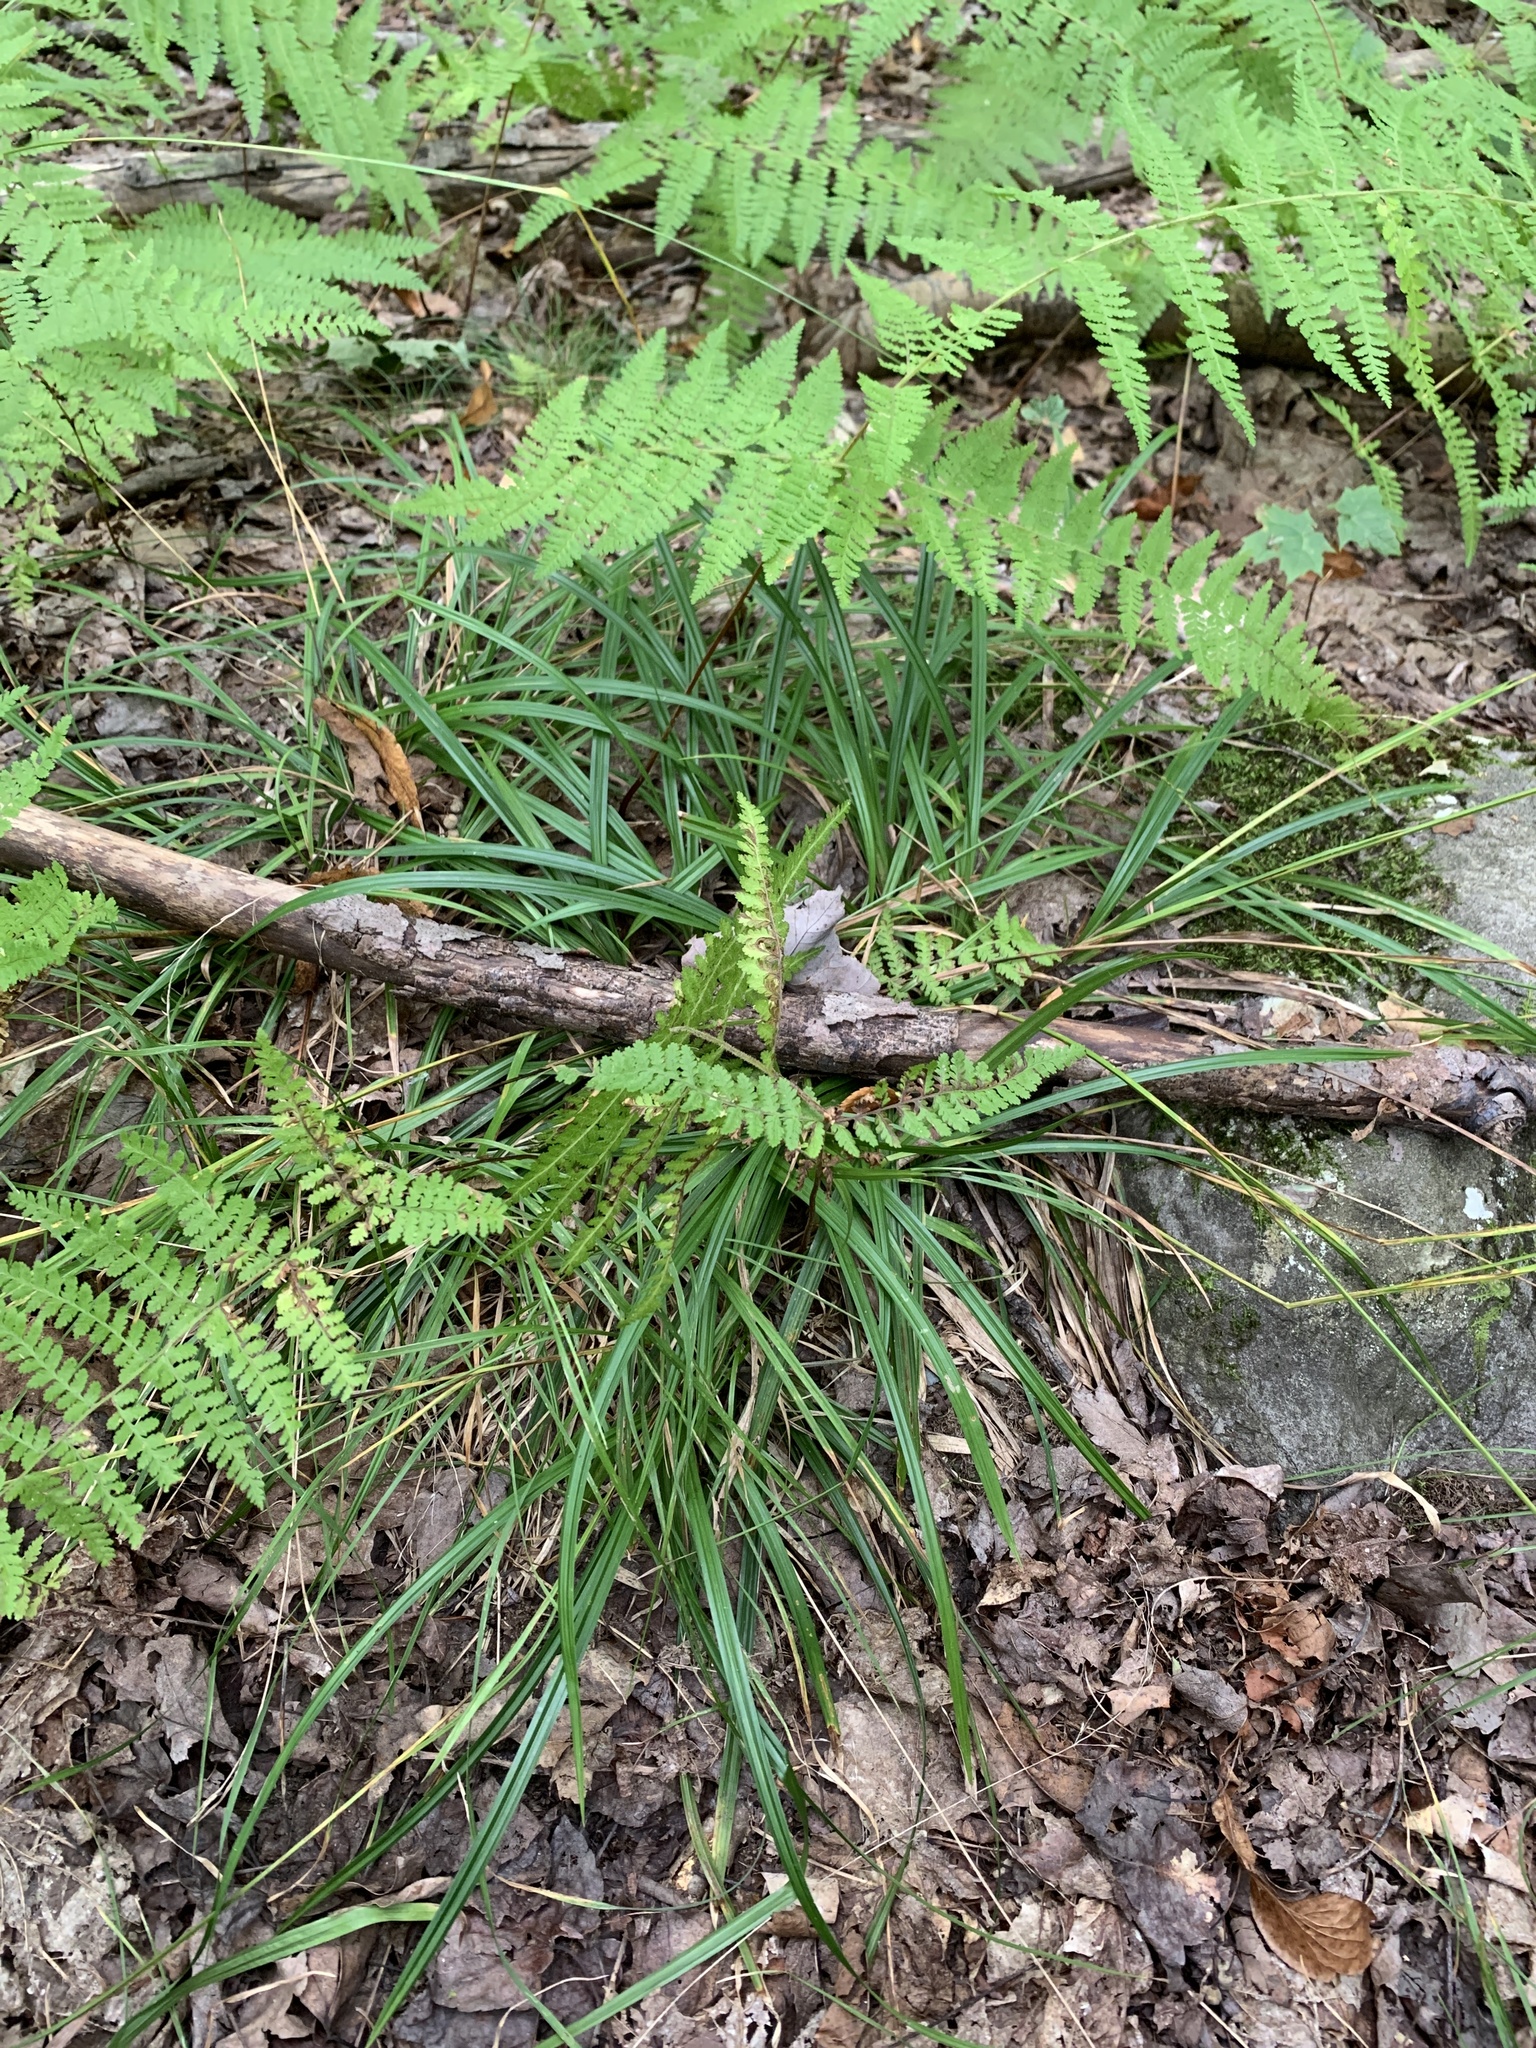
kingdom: Plantae
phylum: Tracheophyta
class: Liliopsida
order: Poales
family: Cyperaceae
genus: Carex
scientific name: Carex arctata
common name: Black sedge
